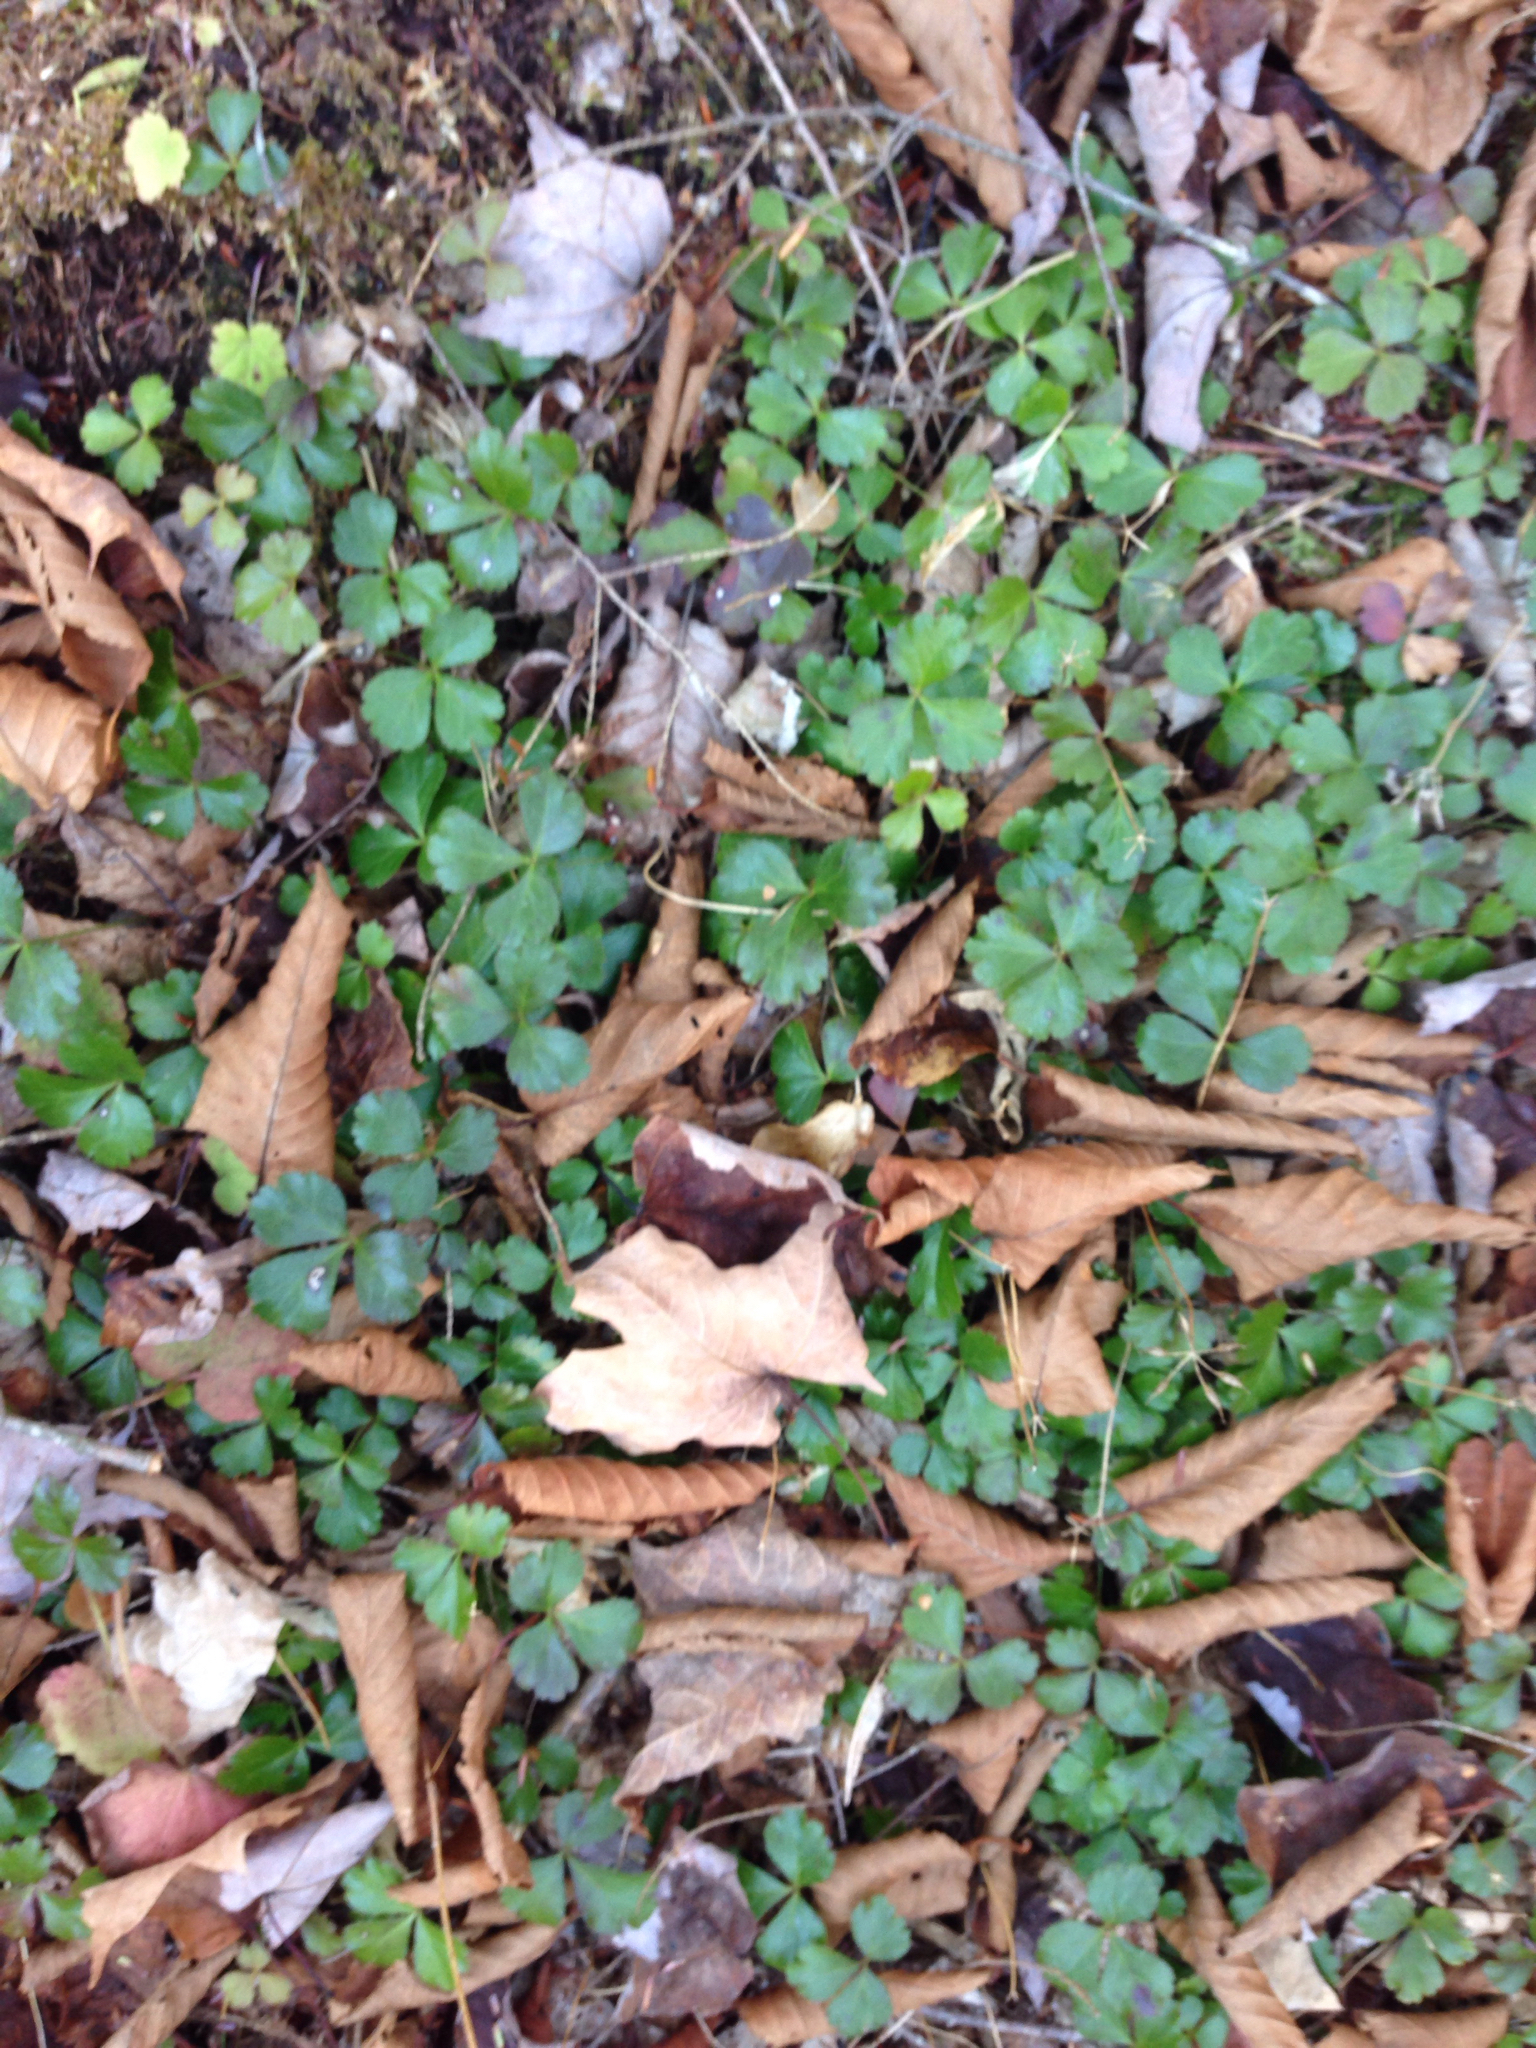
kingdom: Plantae
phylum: Tracheophyta
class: Magnoliopsida
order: Ranunculales
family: Ranunculaceae
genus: Coptis
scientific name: Coptis trifolia
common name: Canker-root
